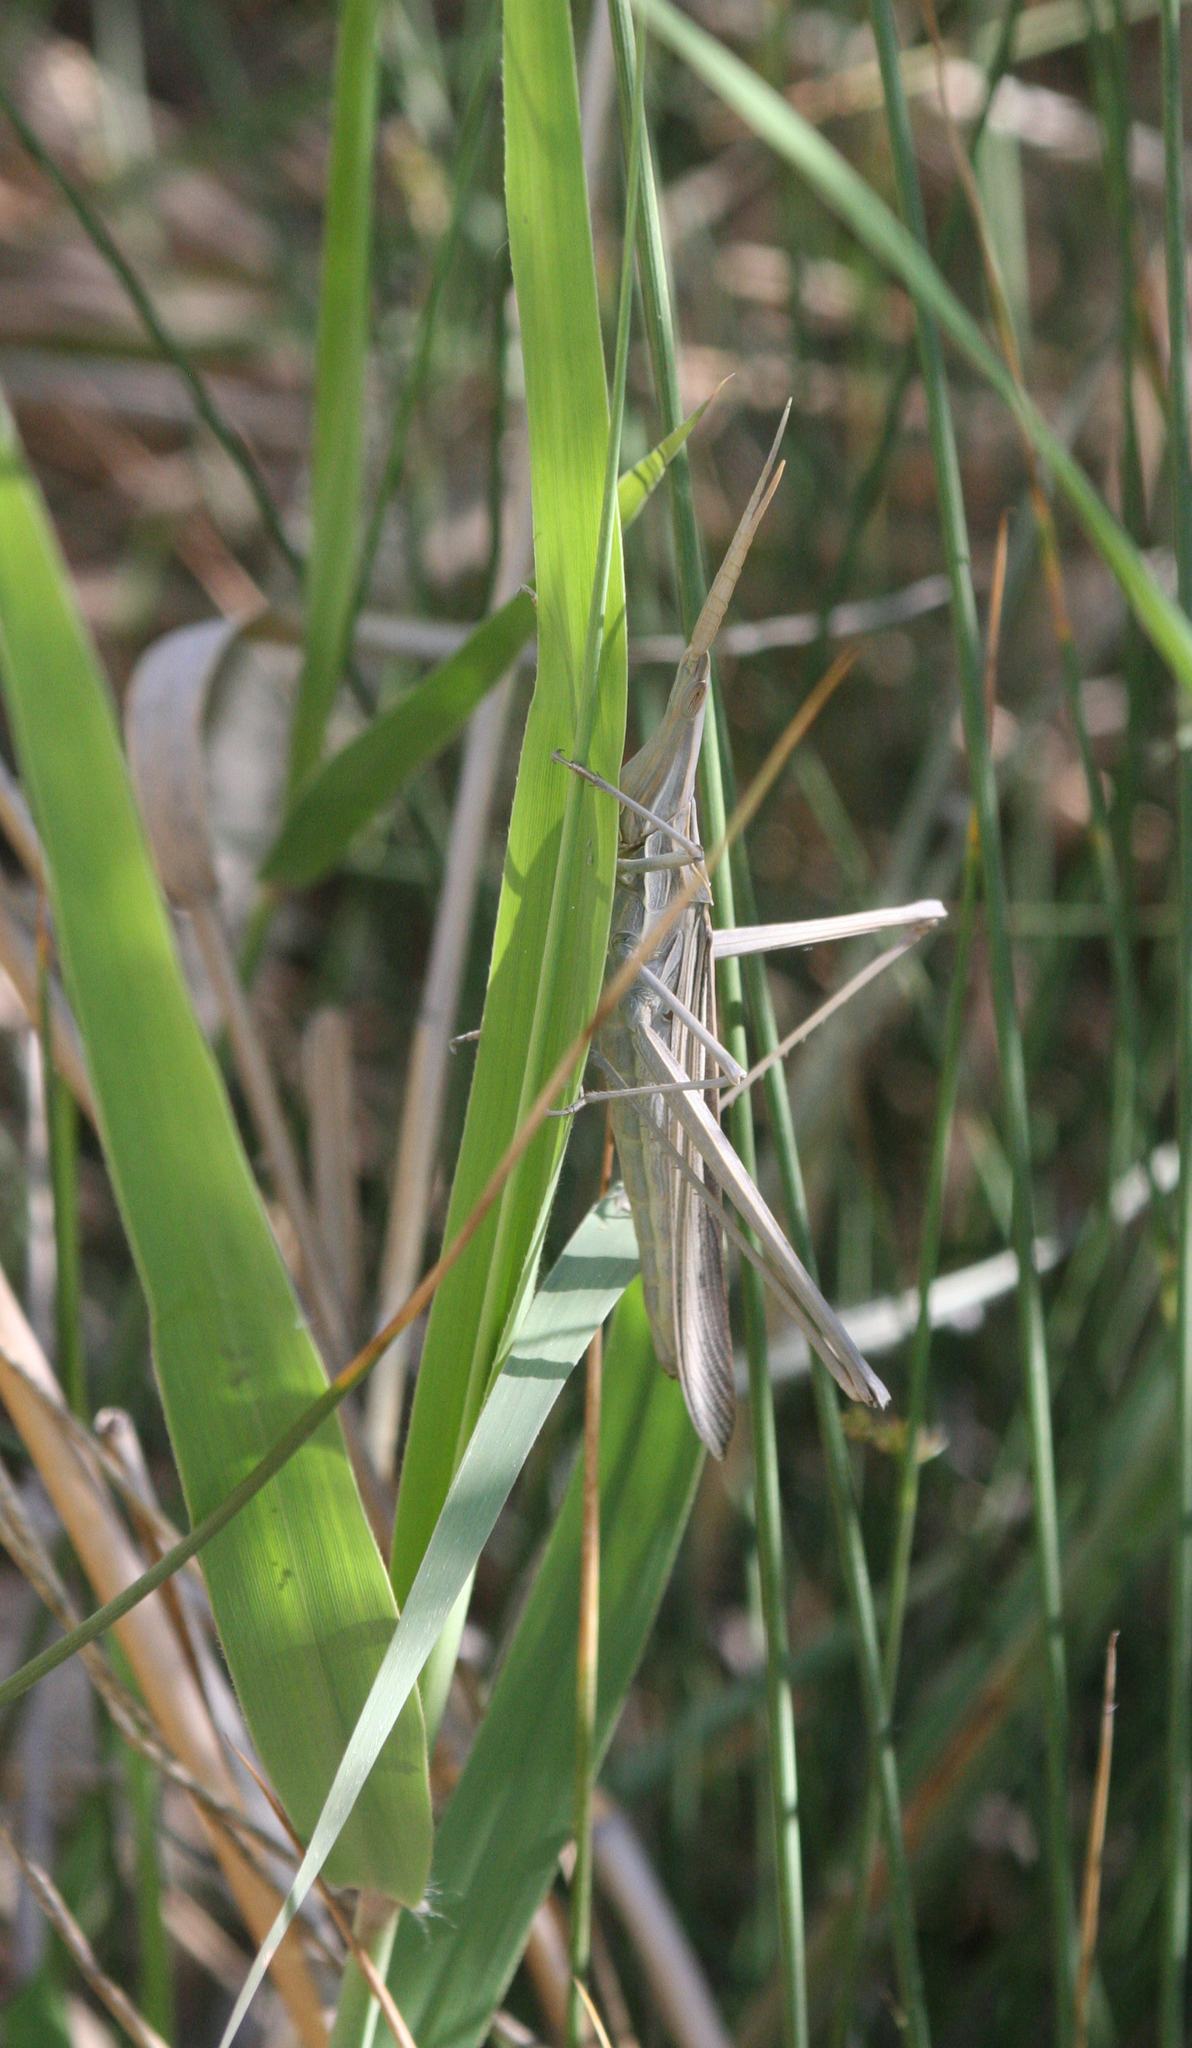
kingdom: Animalia
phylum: Arthropoda
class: Insecta
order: Orthoptera
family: Acrididae
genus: Truxalis
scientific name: Truxalis eximia
